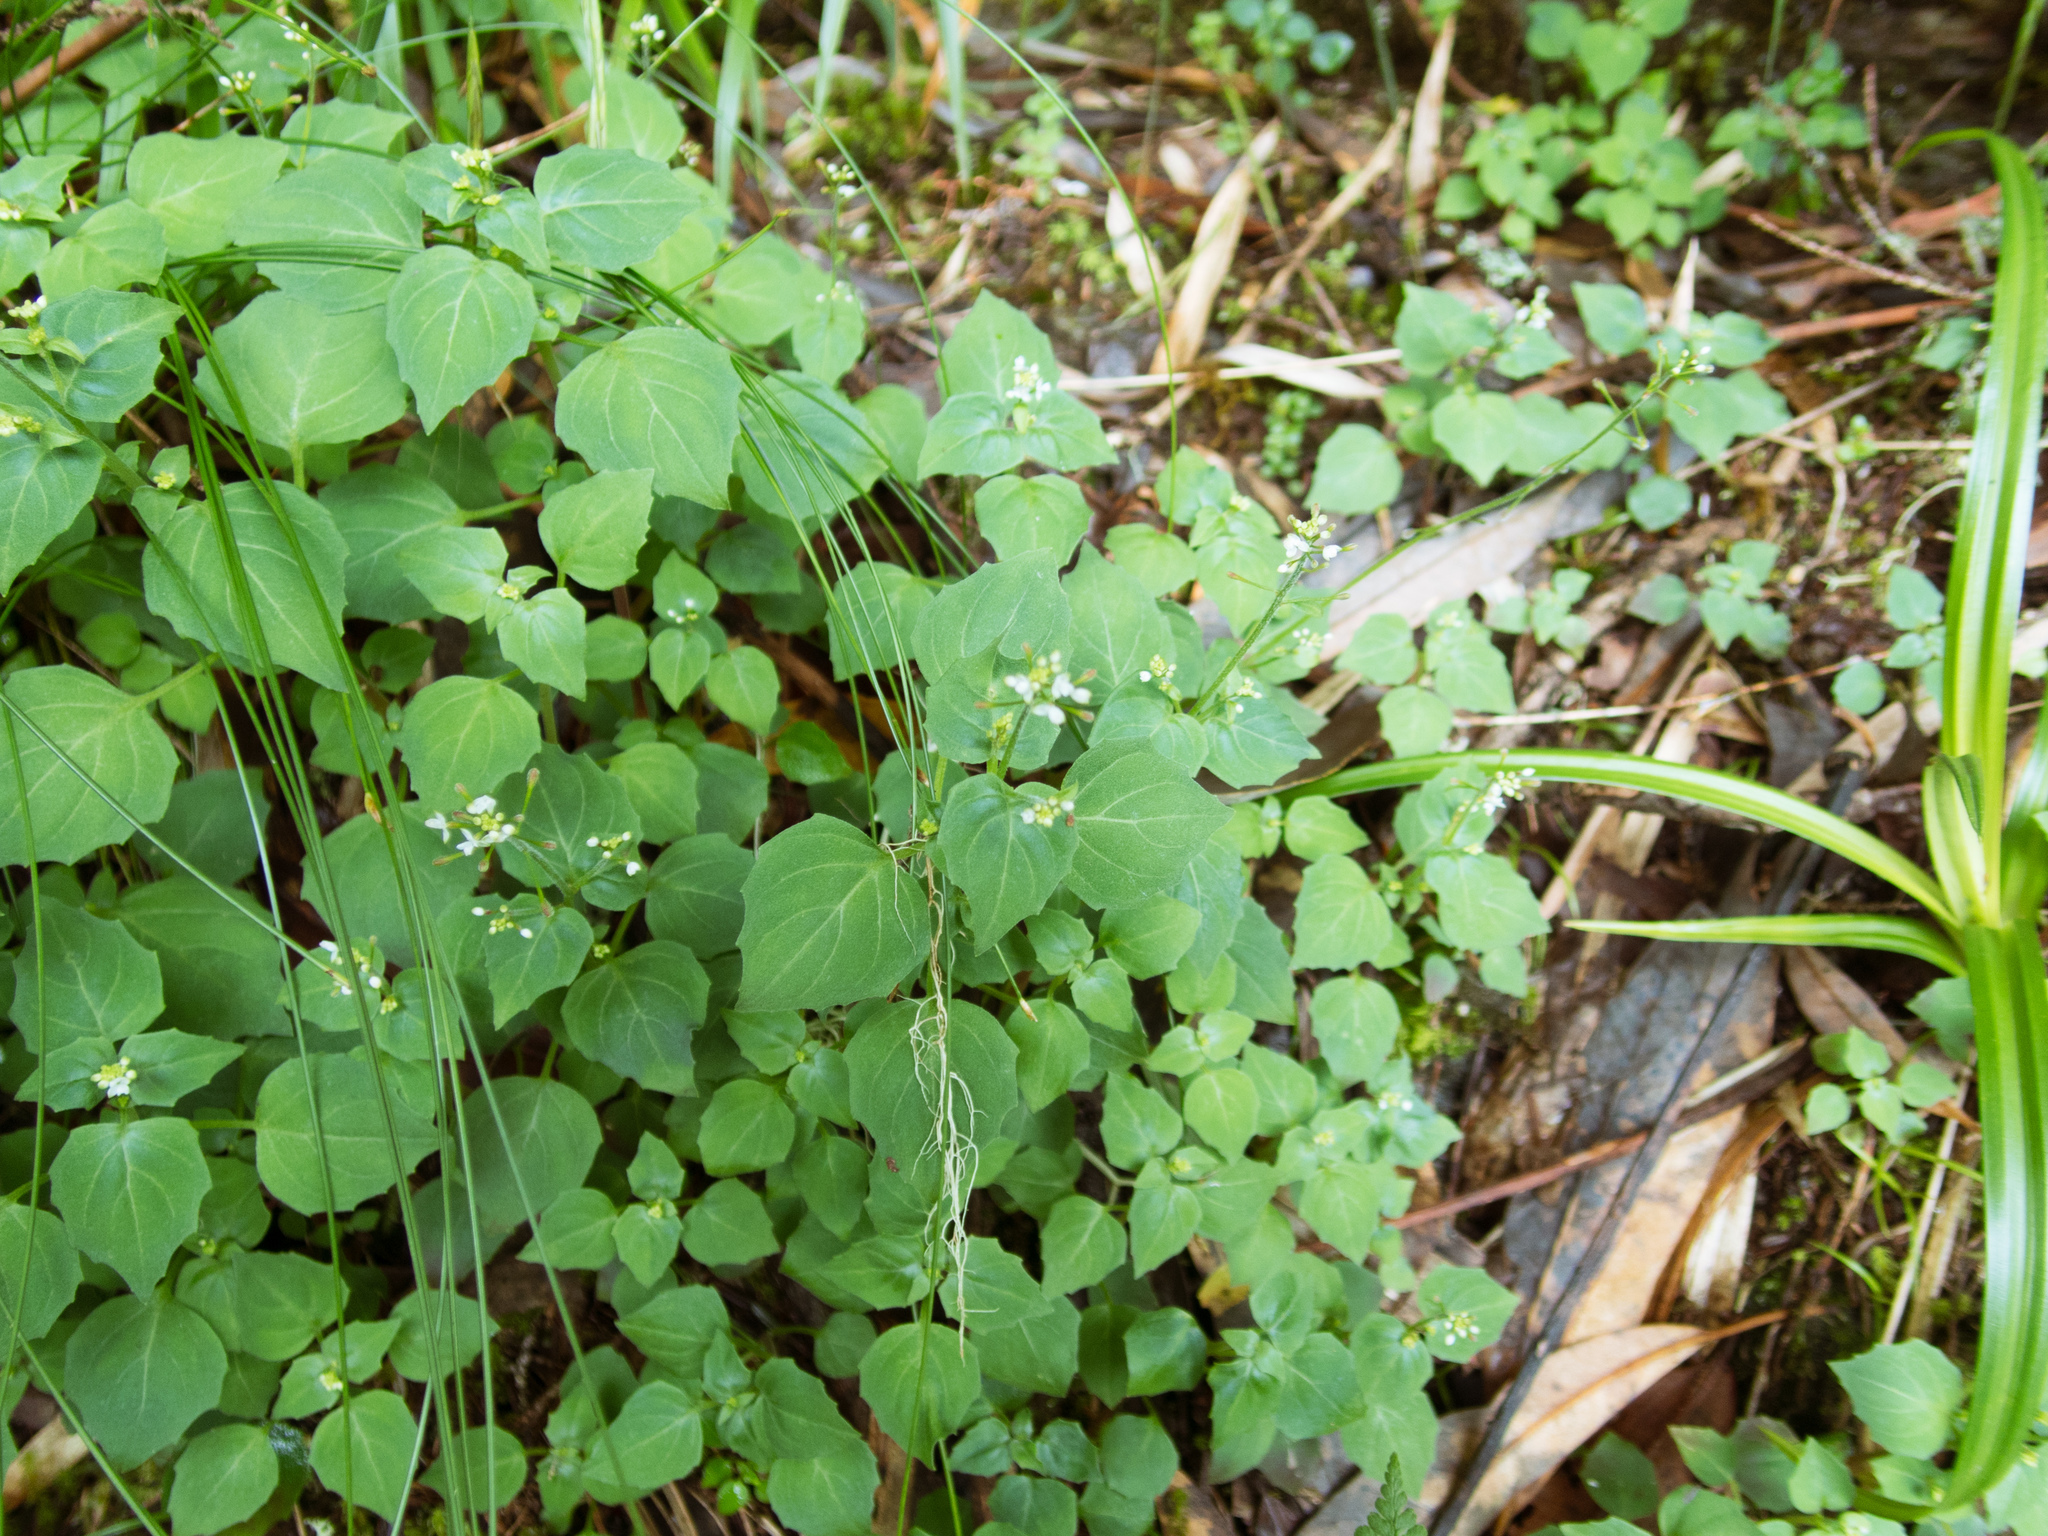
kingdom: Plantae
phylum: Tracheophyta
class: Magnoliopsida
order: Myrtales
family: Onagraceae
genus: Circaea
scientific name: Circaea alpina
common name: Alpine enchanter's-nightshade
